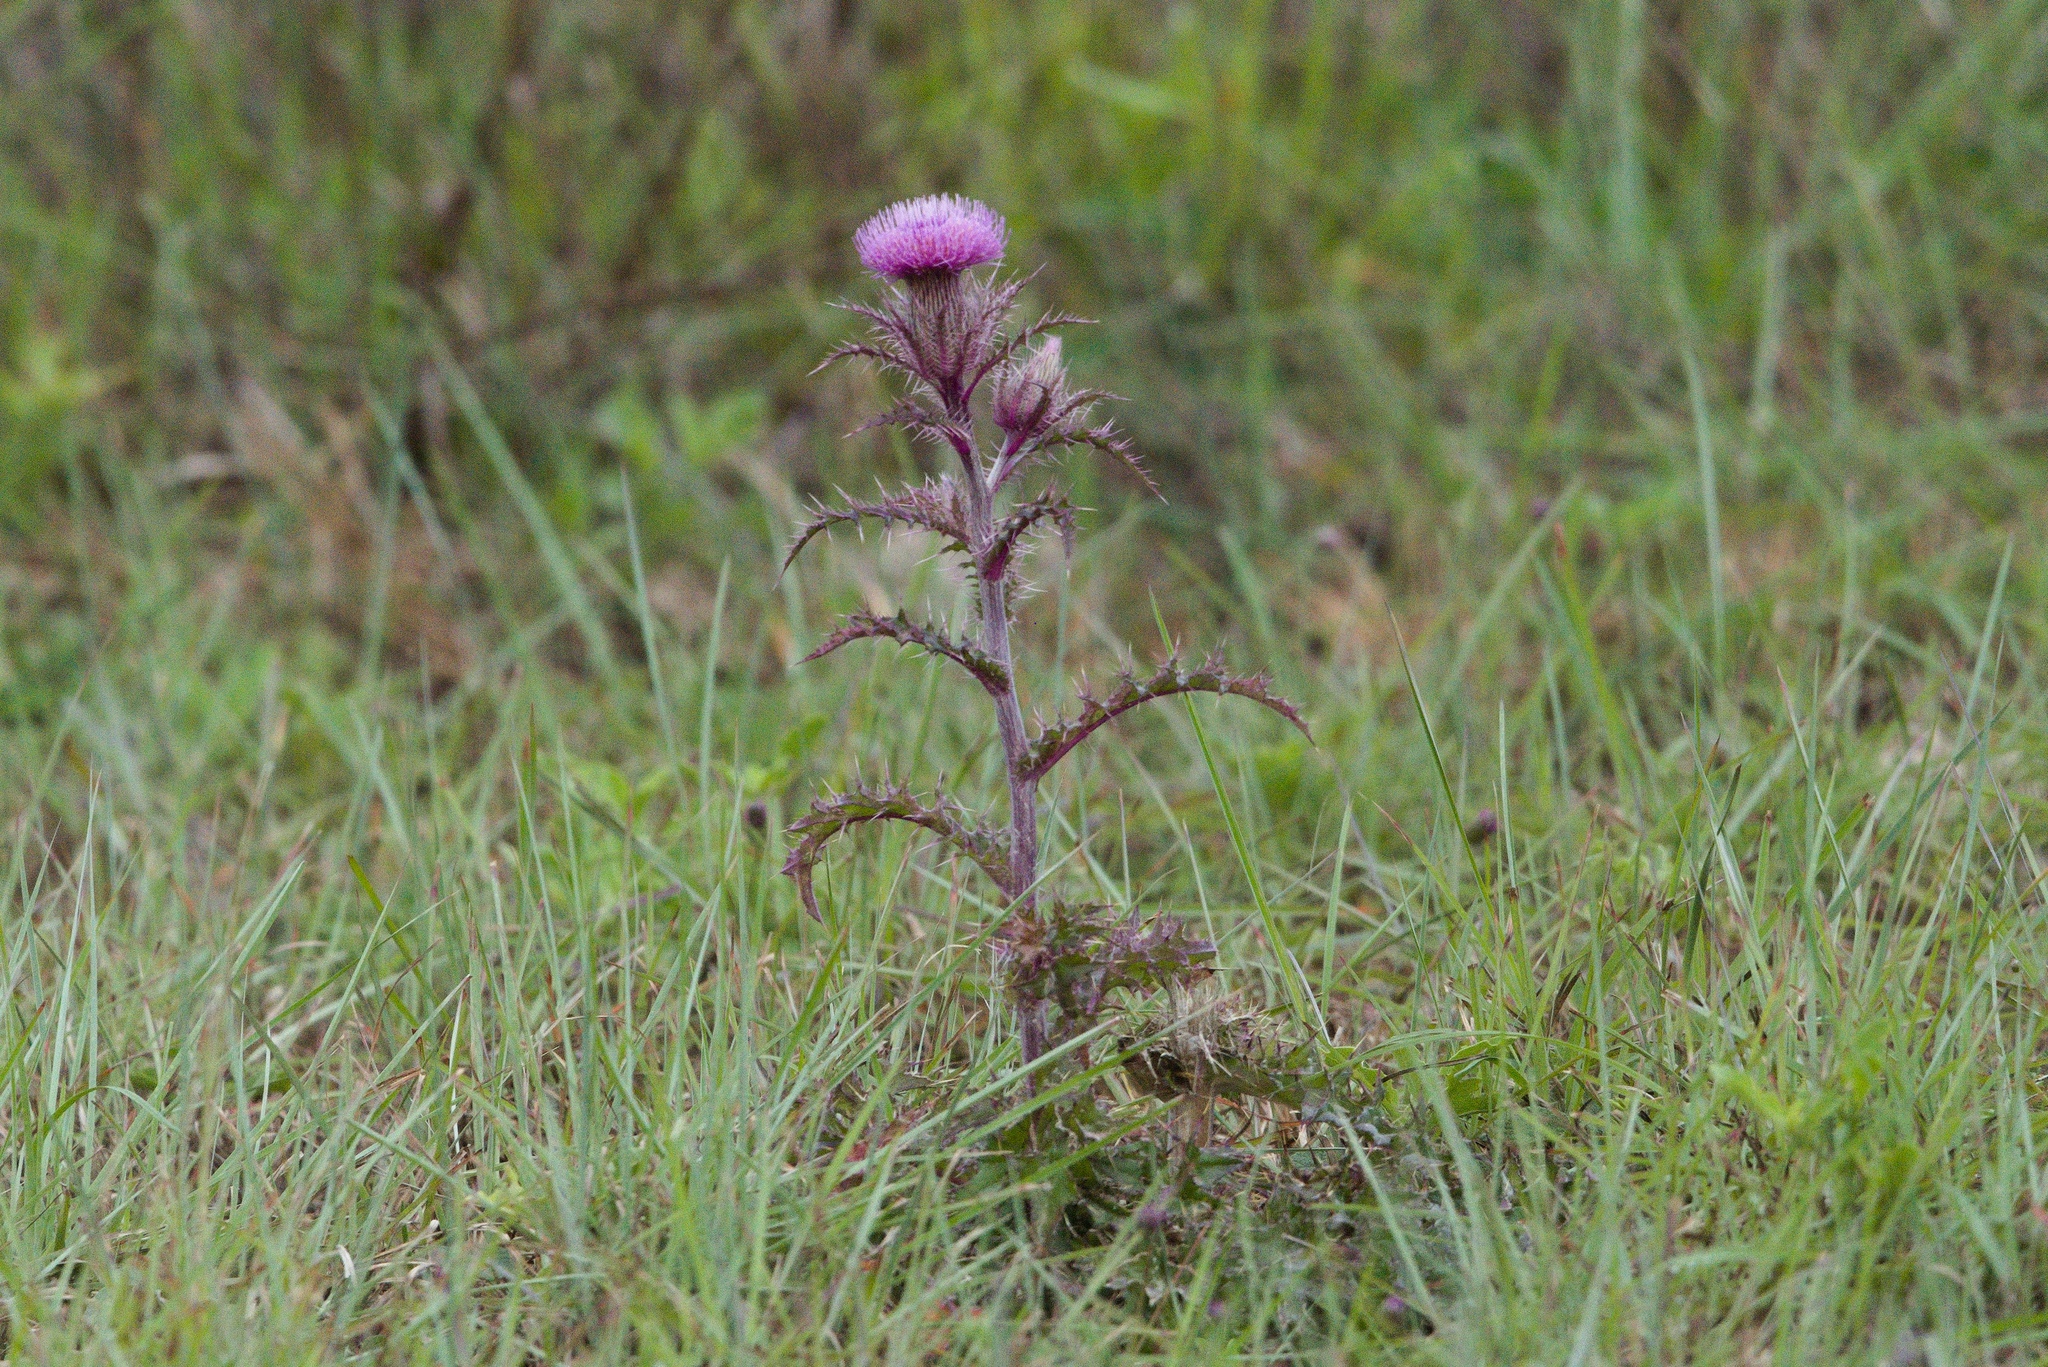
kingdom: Plantae
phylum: Tracheophyta
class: Magnoliopsida
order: Asterales
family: Asteraceae
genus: Cirsium
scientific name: Cirsium horridulum
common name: Bristly thistle
